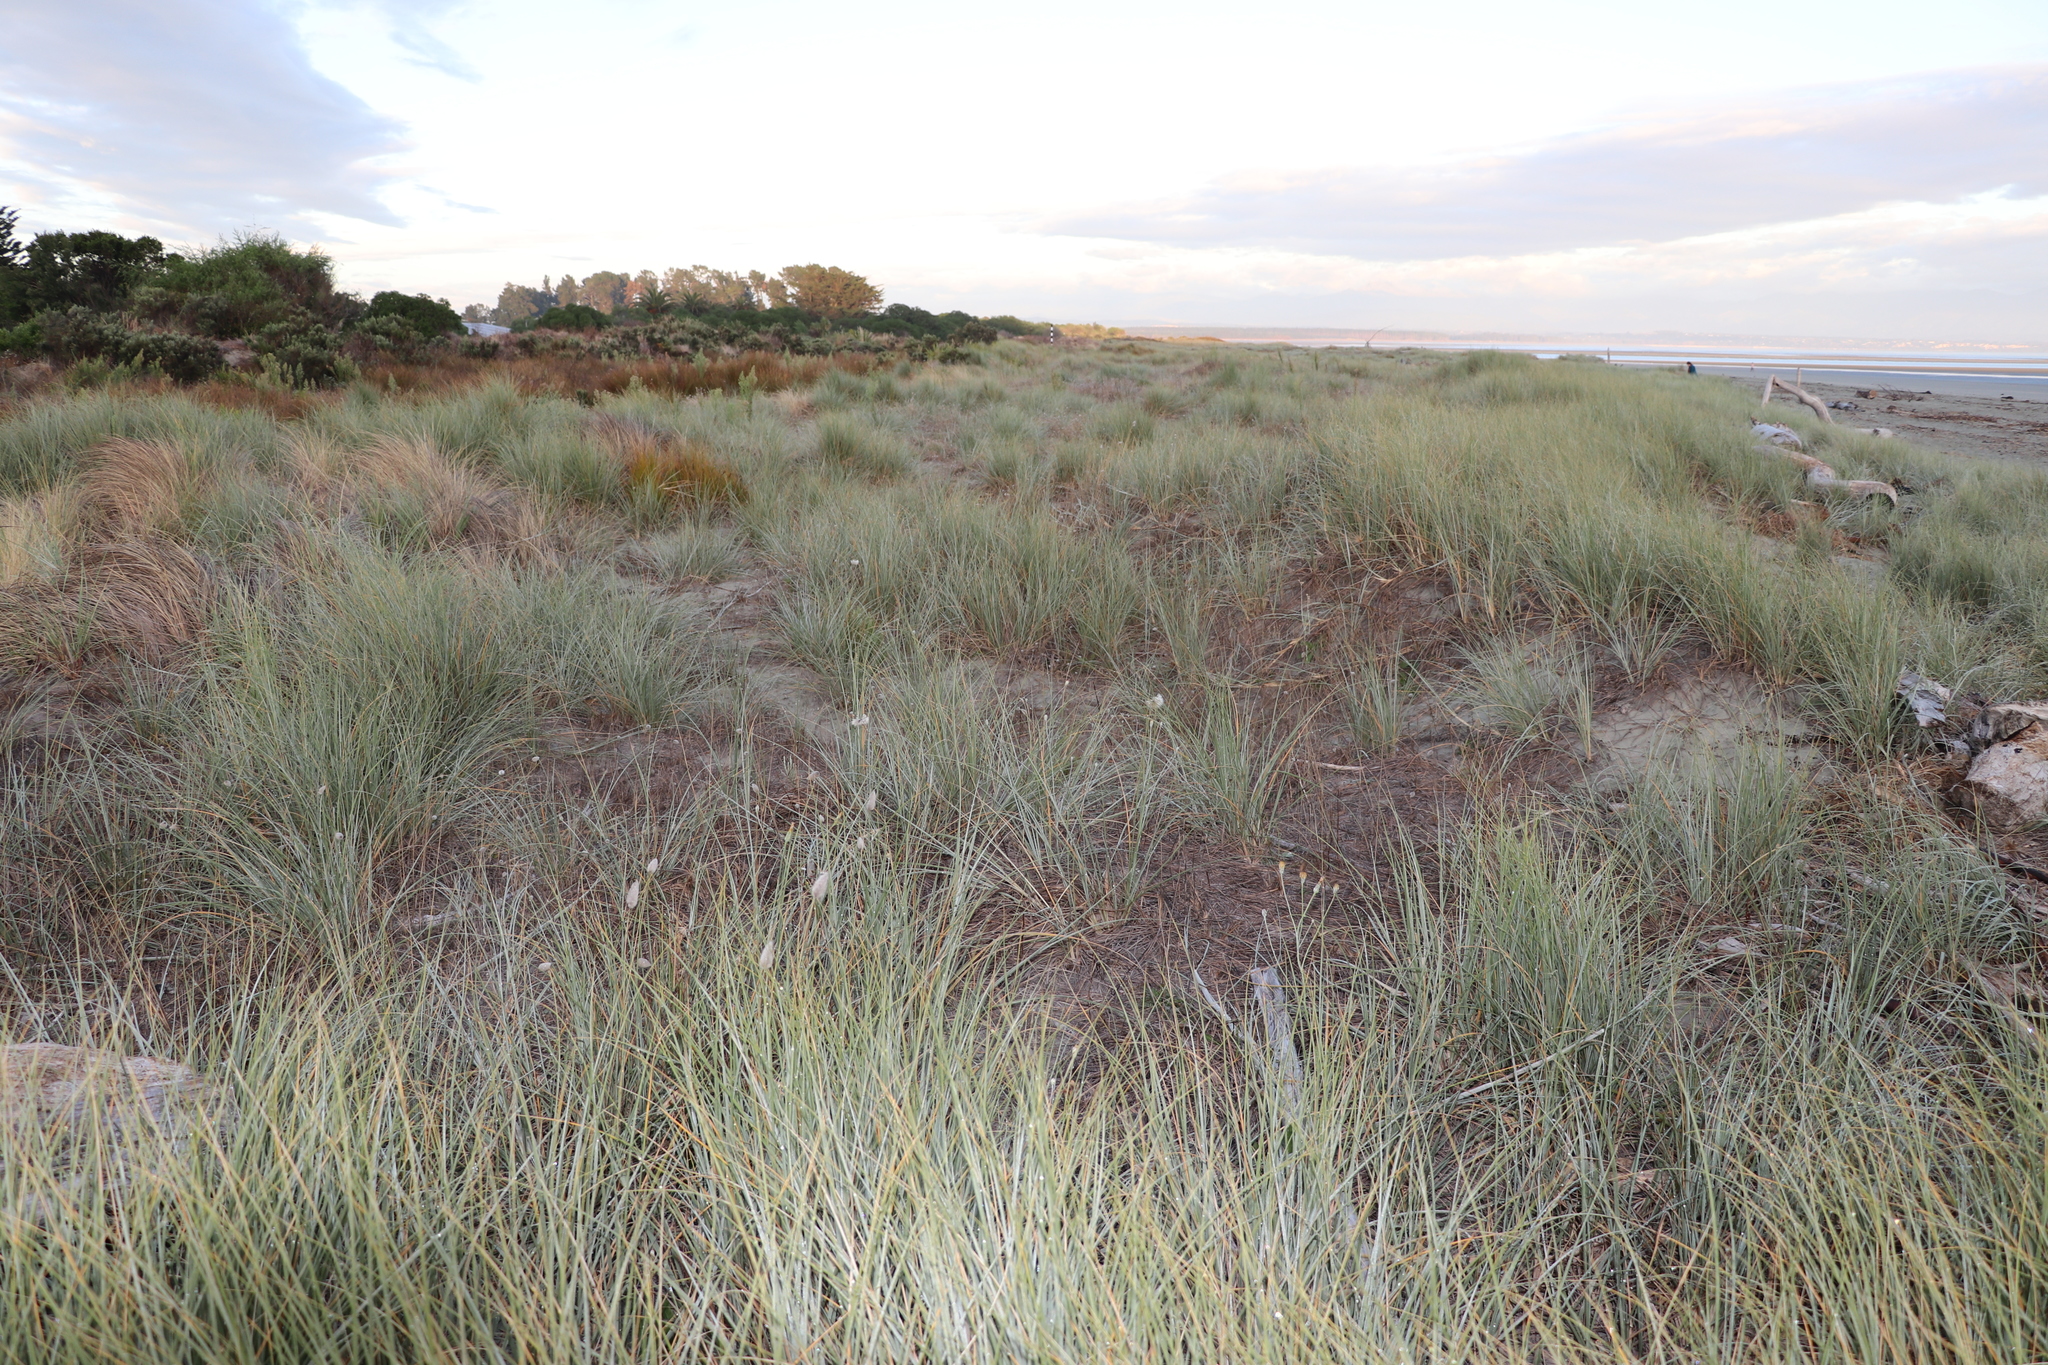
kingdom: Plantae
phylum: Tracheophyta
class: Liliopsida
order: Poales
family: Poaceae
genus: Lagurus
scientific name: Lagurus ovatus
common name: Hare's-tail
